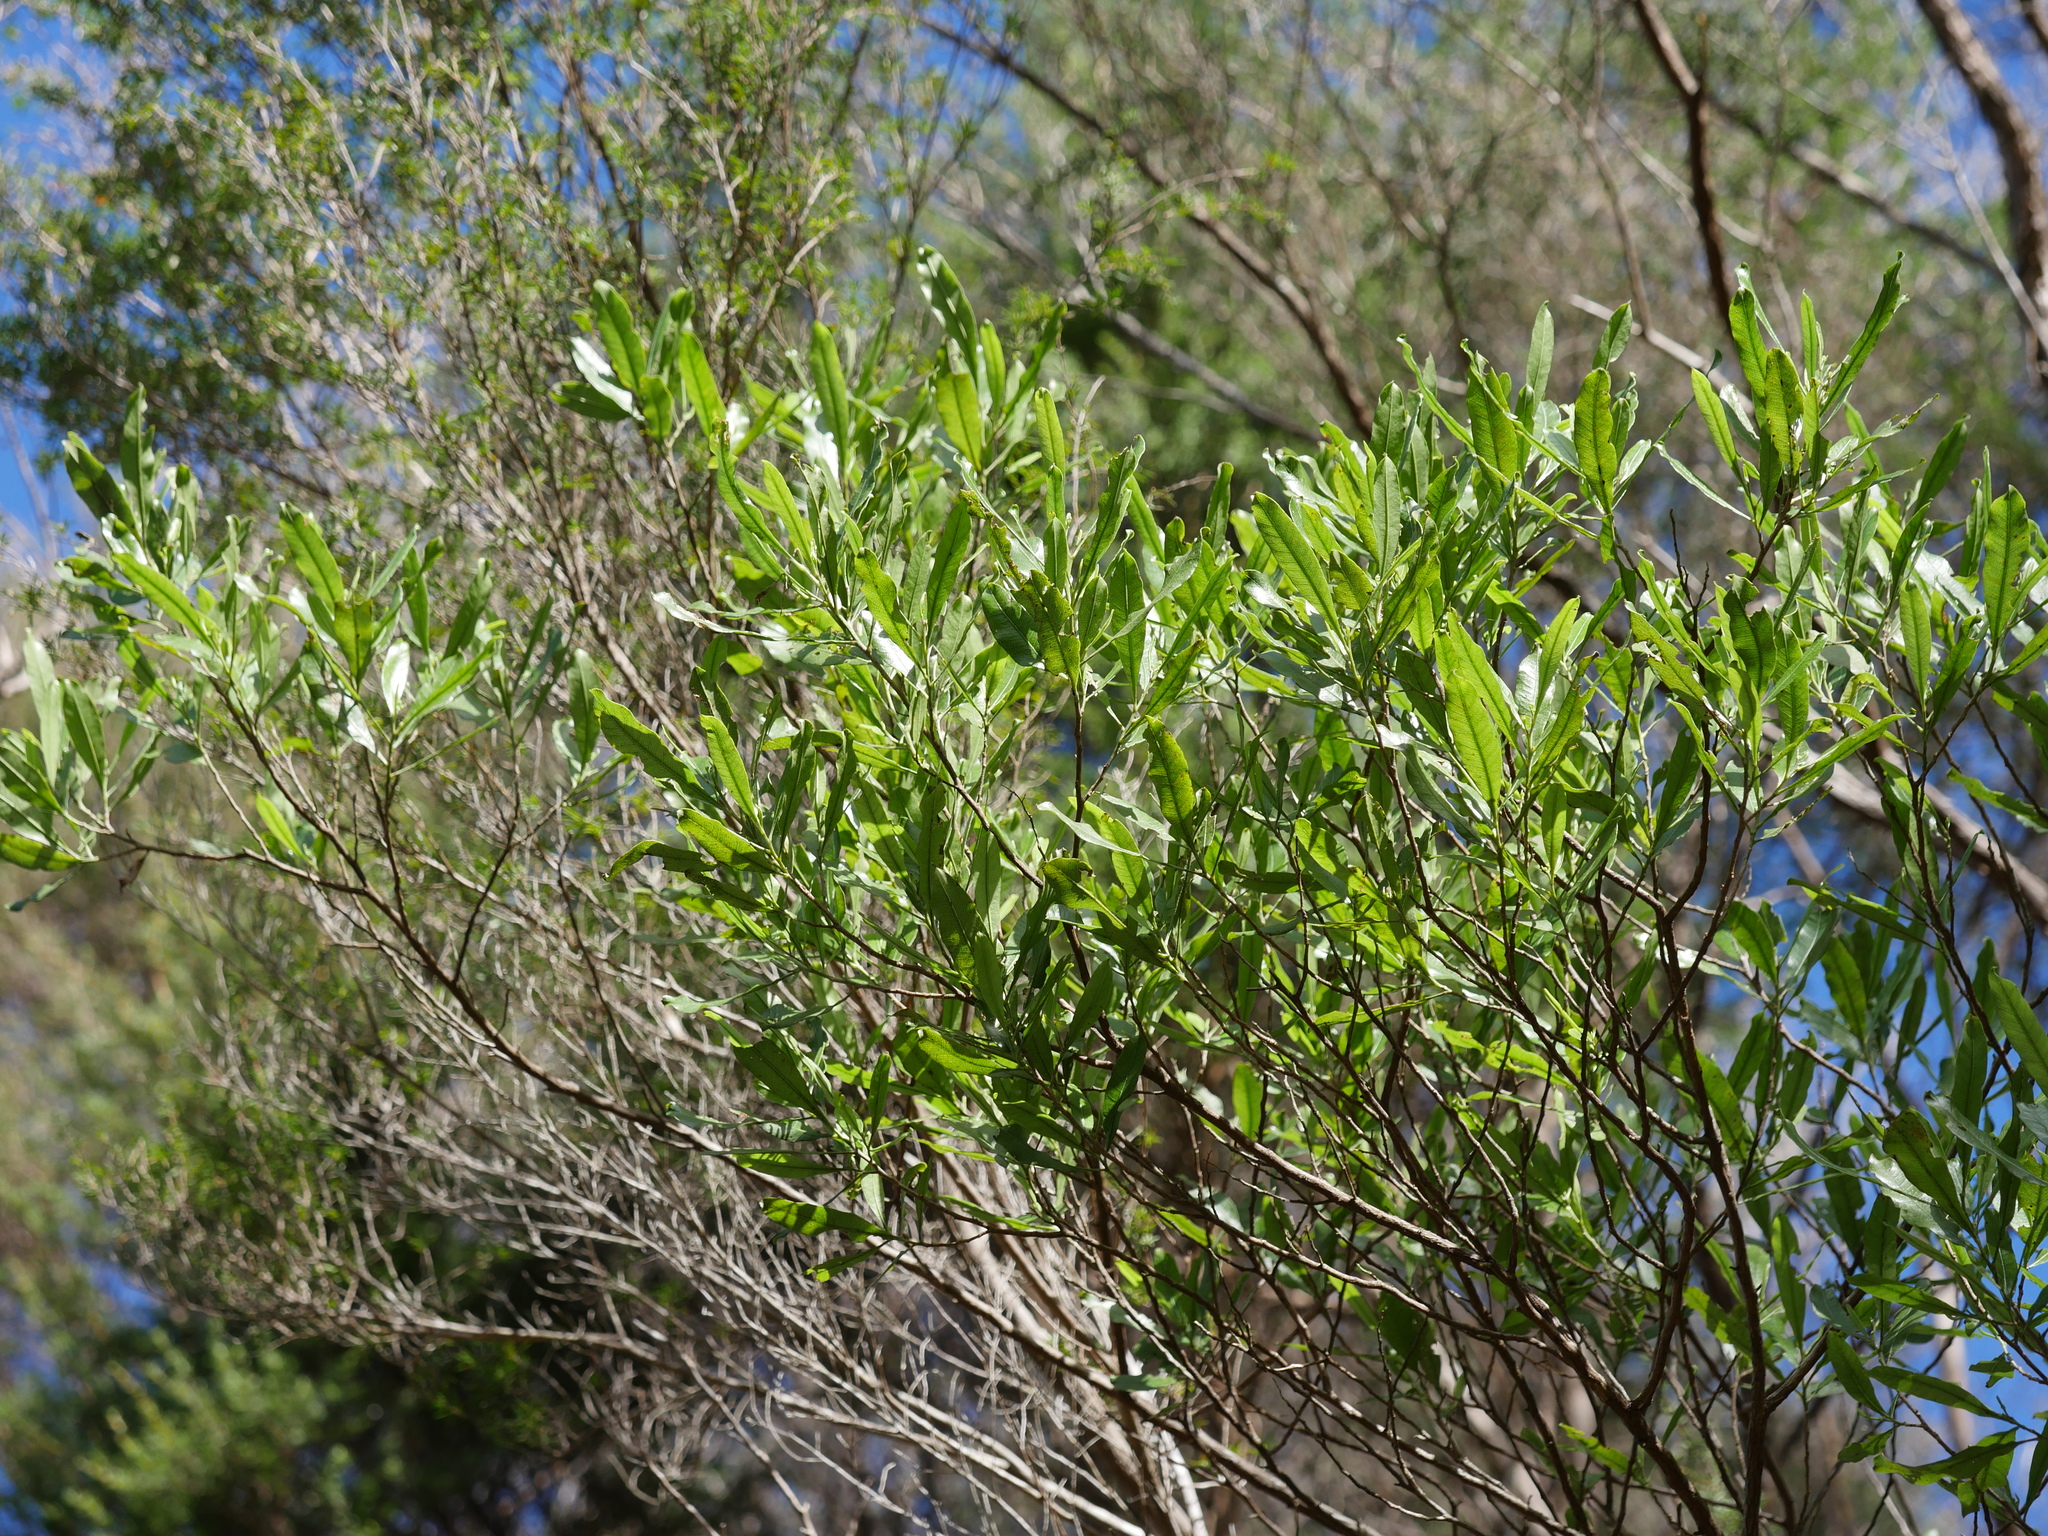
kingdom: Plantae
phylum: Tracheophyta
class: Magnoliopsida
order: Sapindales
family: Sapindaceae
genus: Dodonaea
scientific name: Dodonaea viscosa
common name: Hopbush
